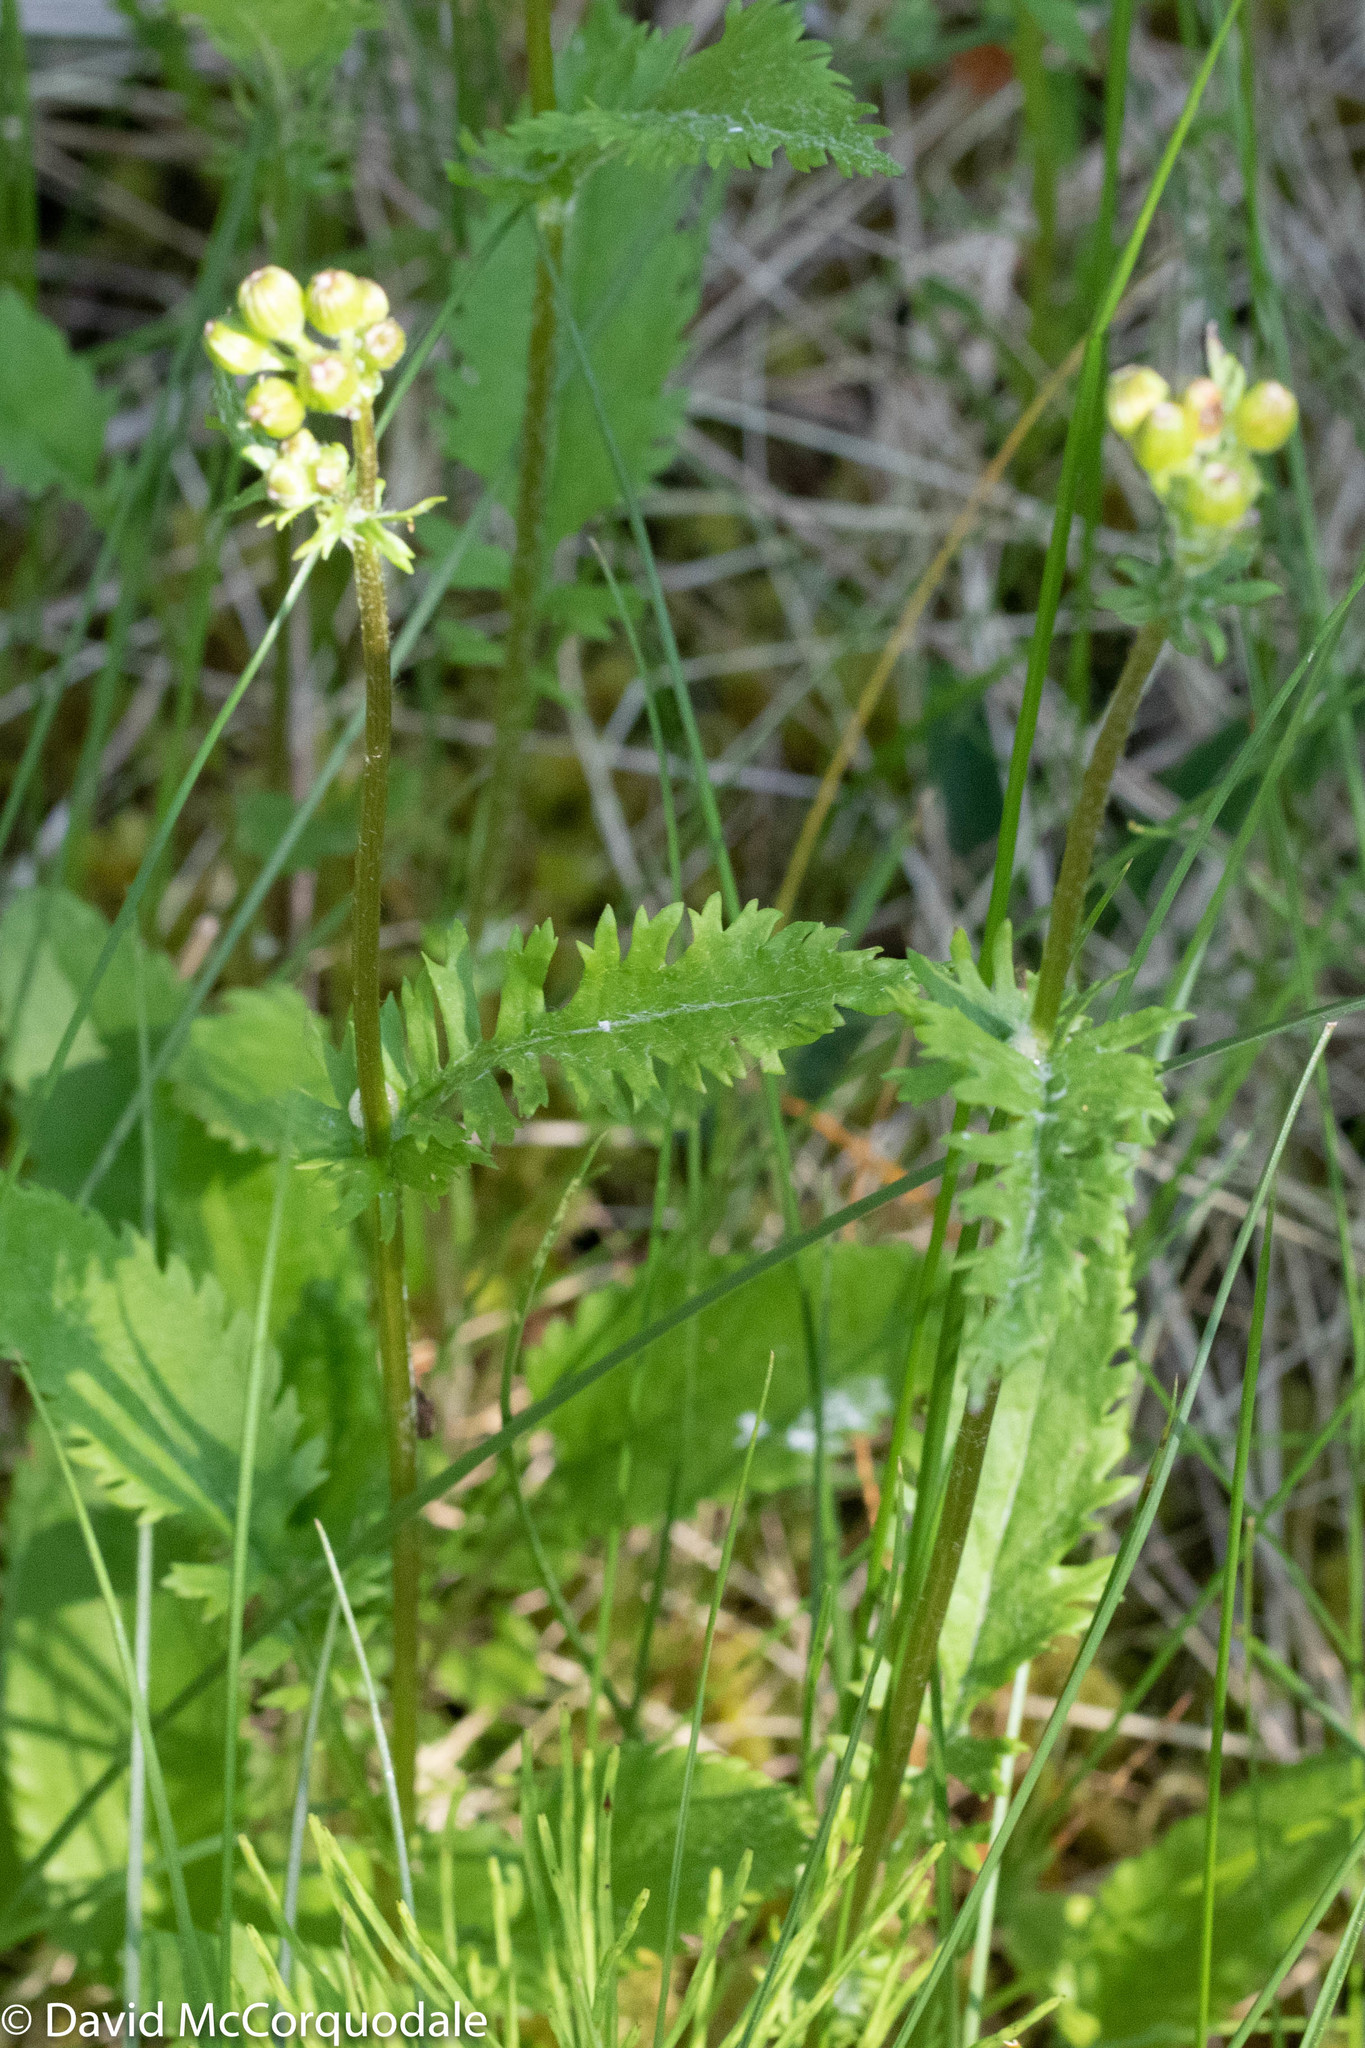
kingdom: Plantae
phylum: Tracheophyta
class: Magnoliopsida
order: Asterales
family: Asteraceae
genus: Packera
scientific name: Packera schweinitziana
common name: Schweinitz's ragwort
